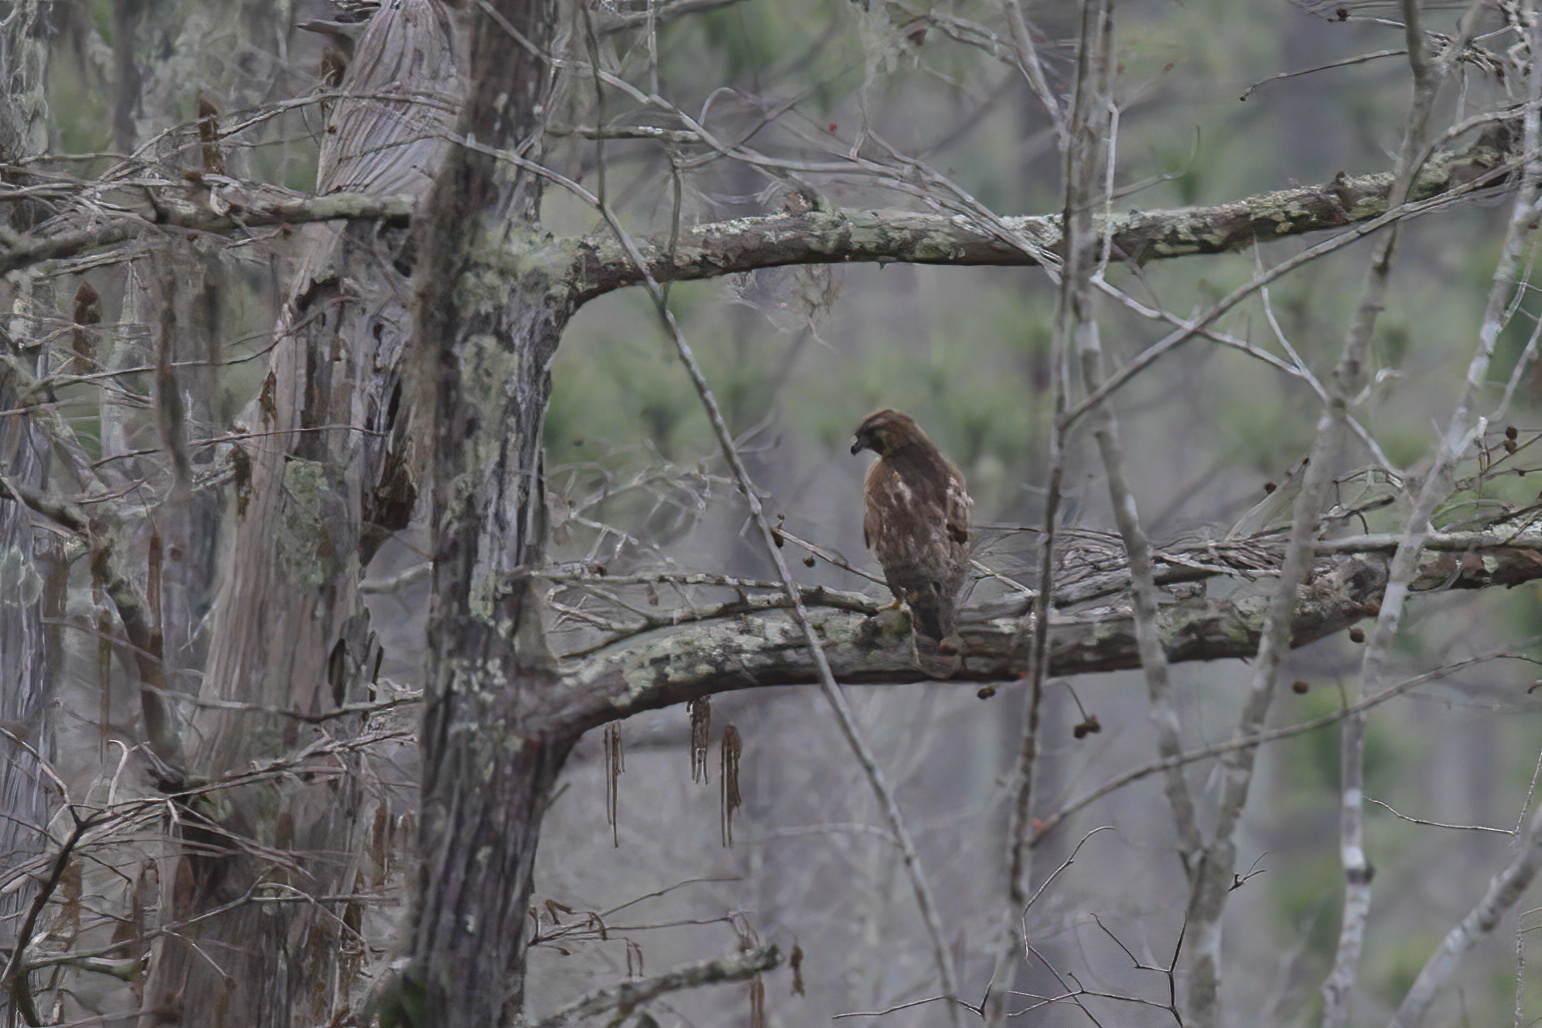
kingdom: Animalia
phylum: Chordata
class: Aves
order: Accipitriformes
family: Accipitridae
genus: Buteo
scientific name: Buteo lineatus
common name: Red-shouldered hawk
